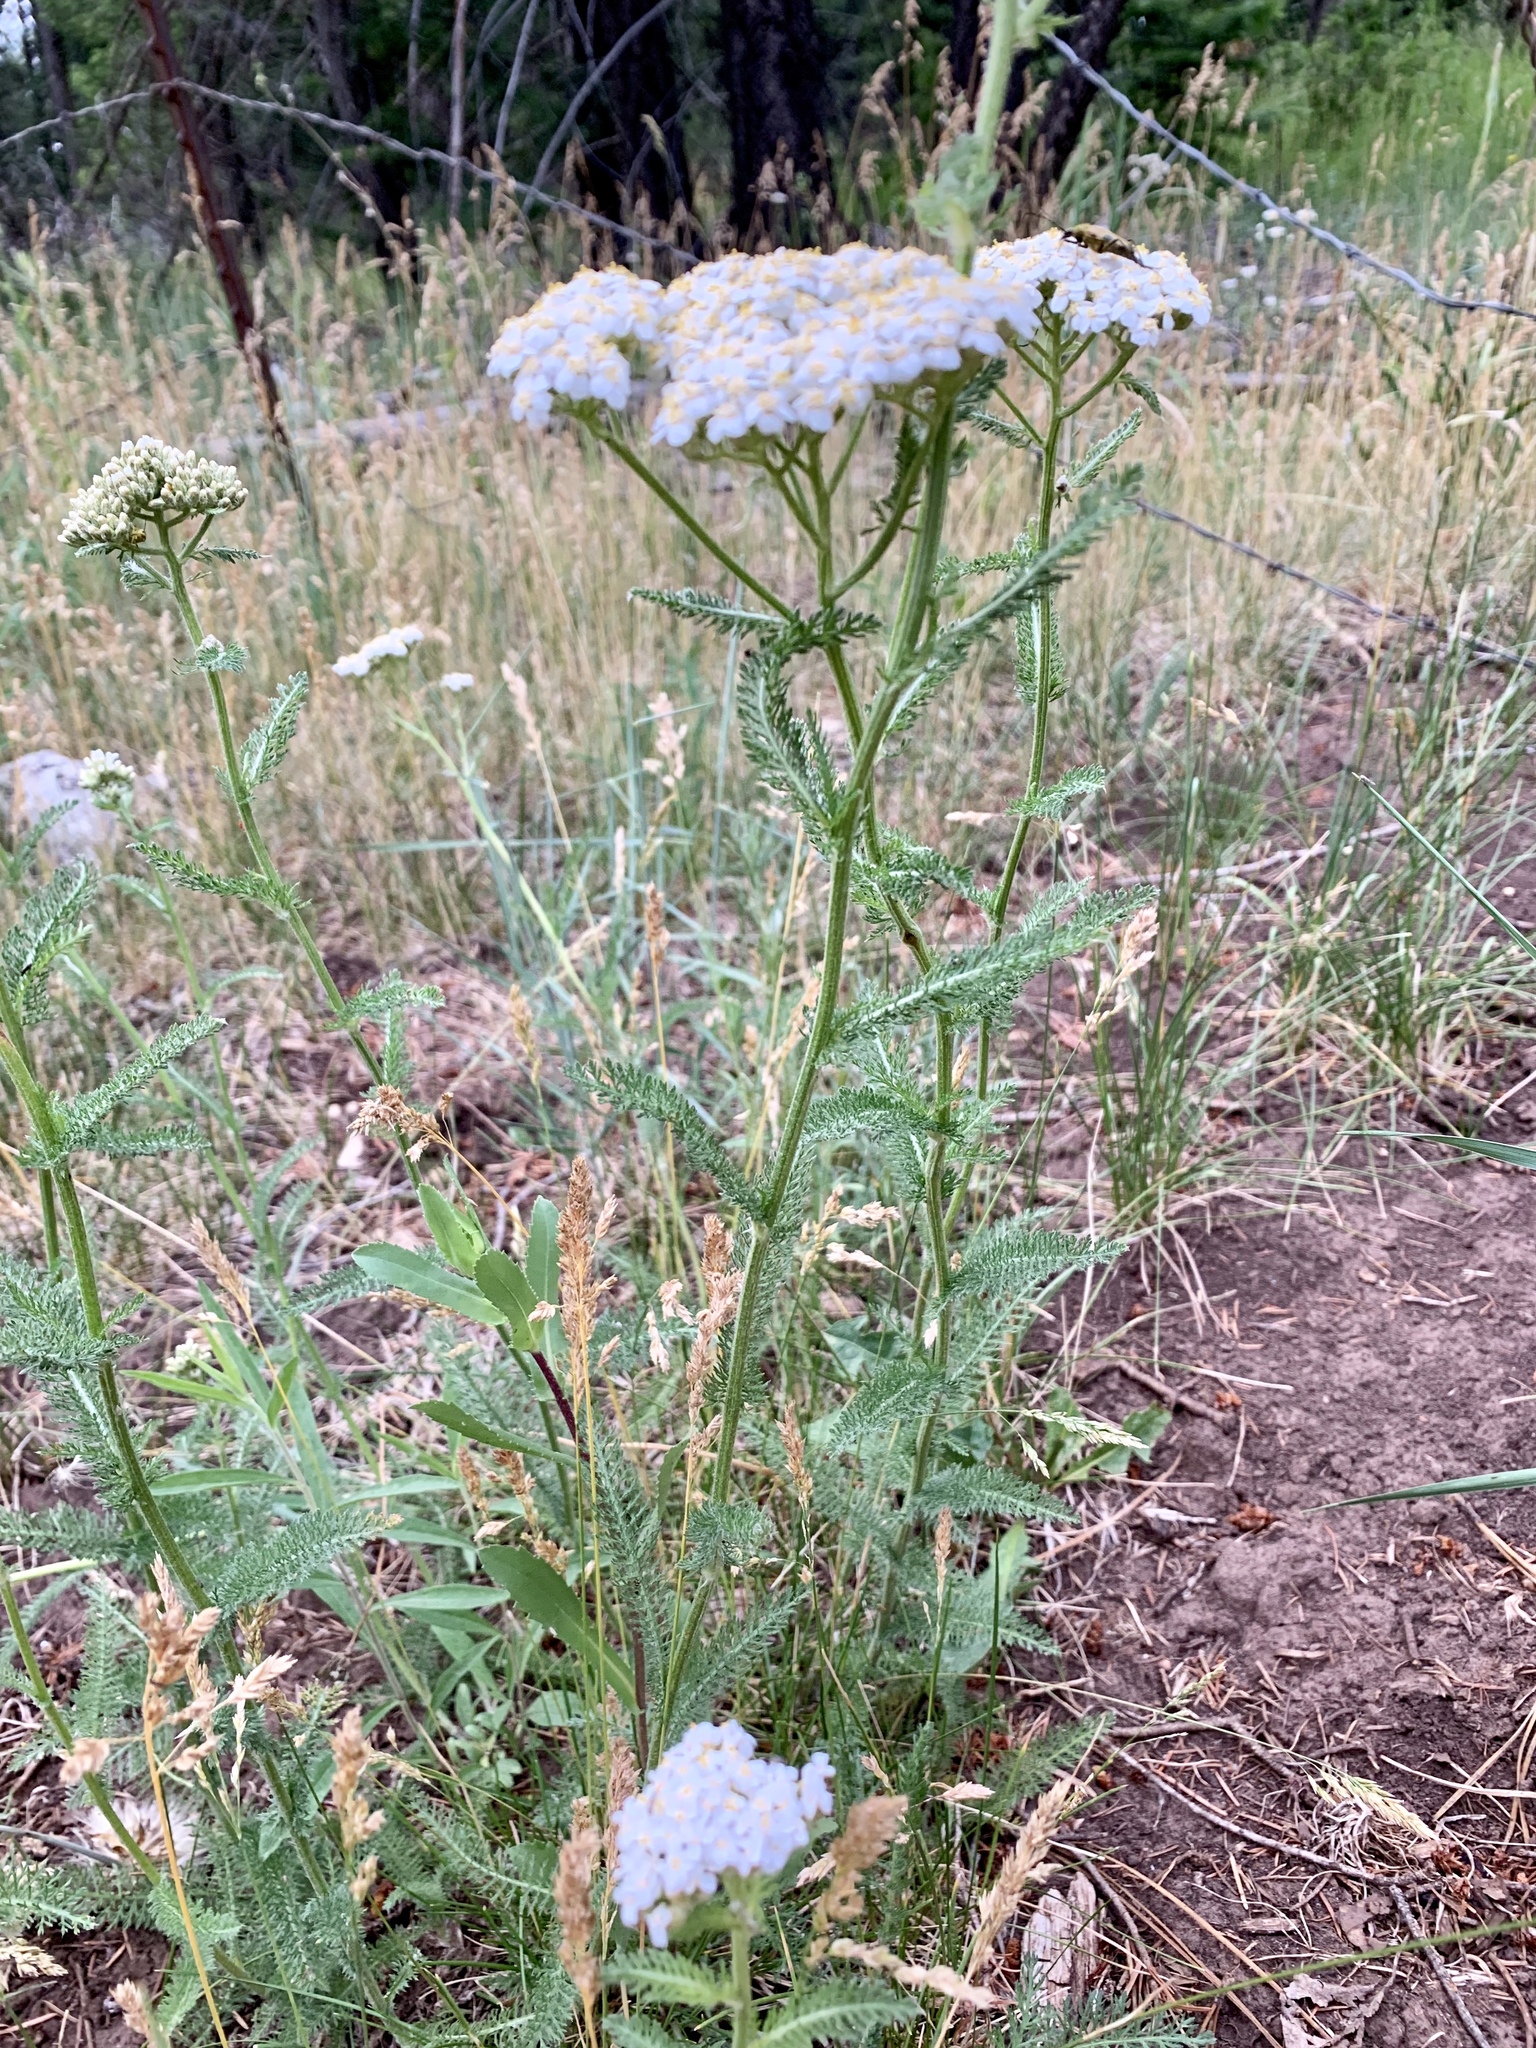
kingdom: Plantae
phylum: Tracheophyta
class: Magnoliopsida
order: Asterales
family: Asteraceae
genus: Achillea
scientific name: Achillea millefolium
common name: Yarrow
